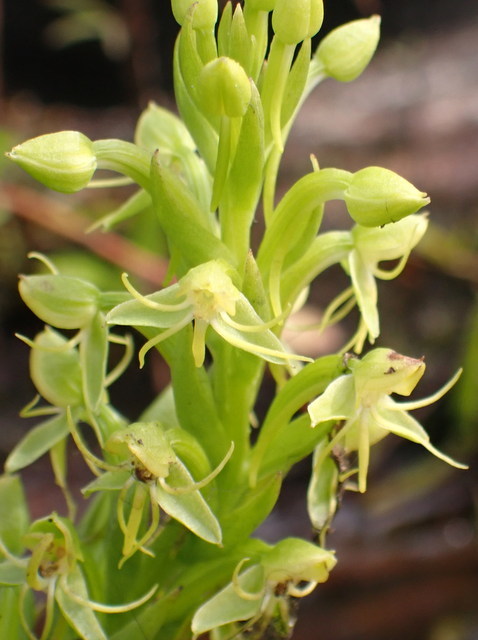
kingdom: Plantae
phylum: Tracheophyta
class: Liliopsida
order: Asparagales
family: Orchidaceae
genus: Habenaria
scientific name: Habenaria repens
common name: Water orchid
